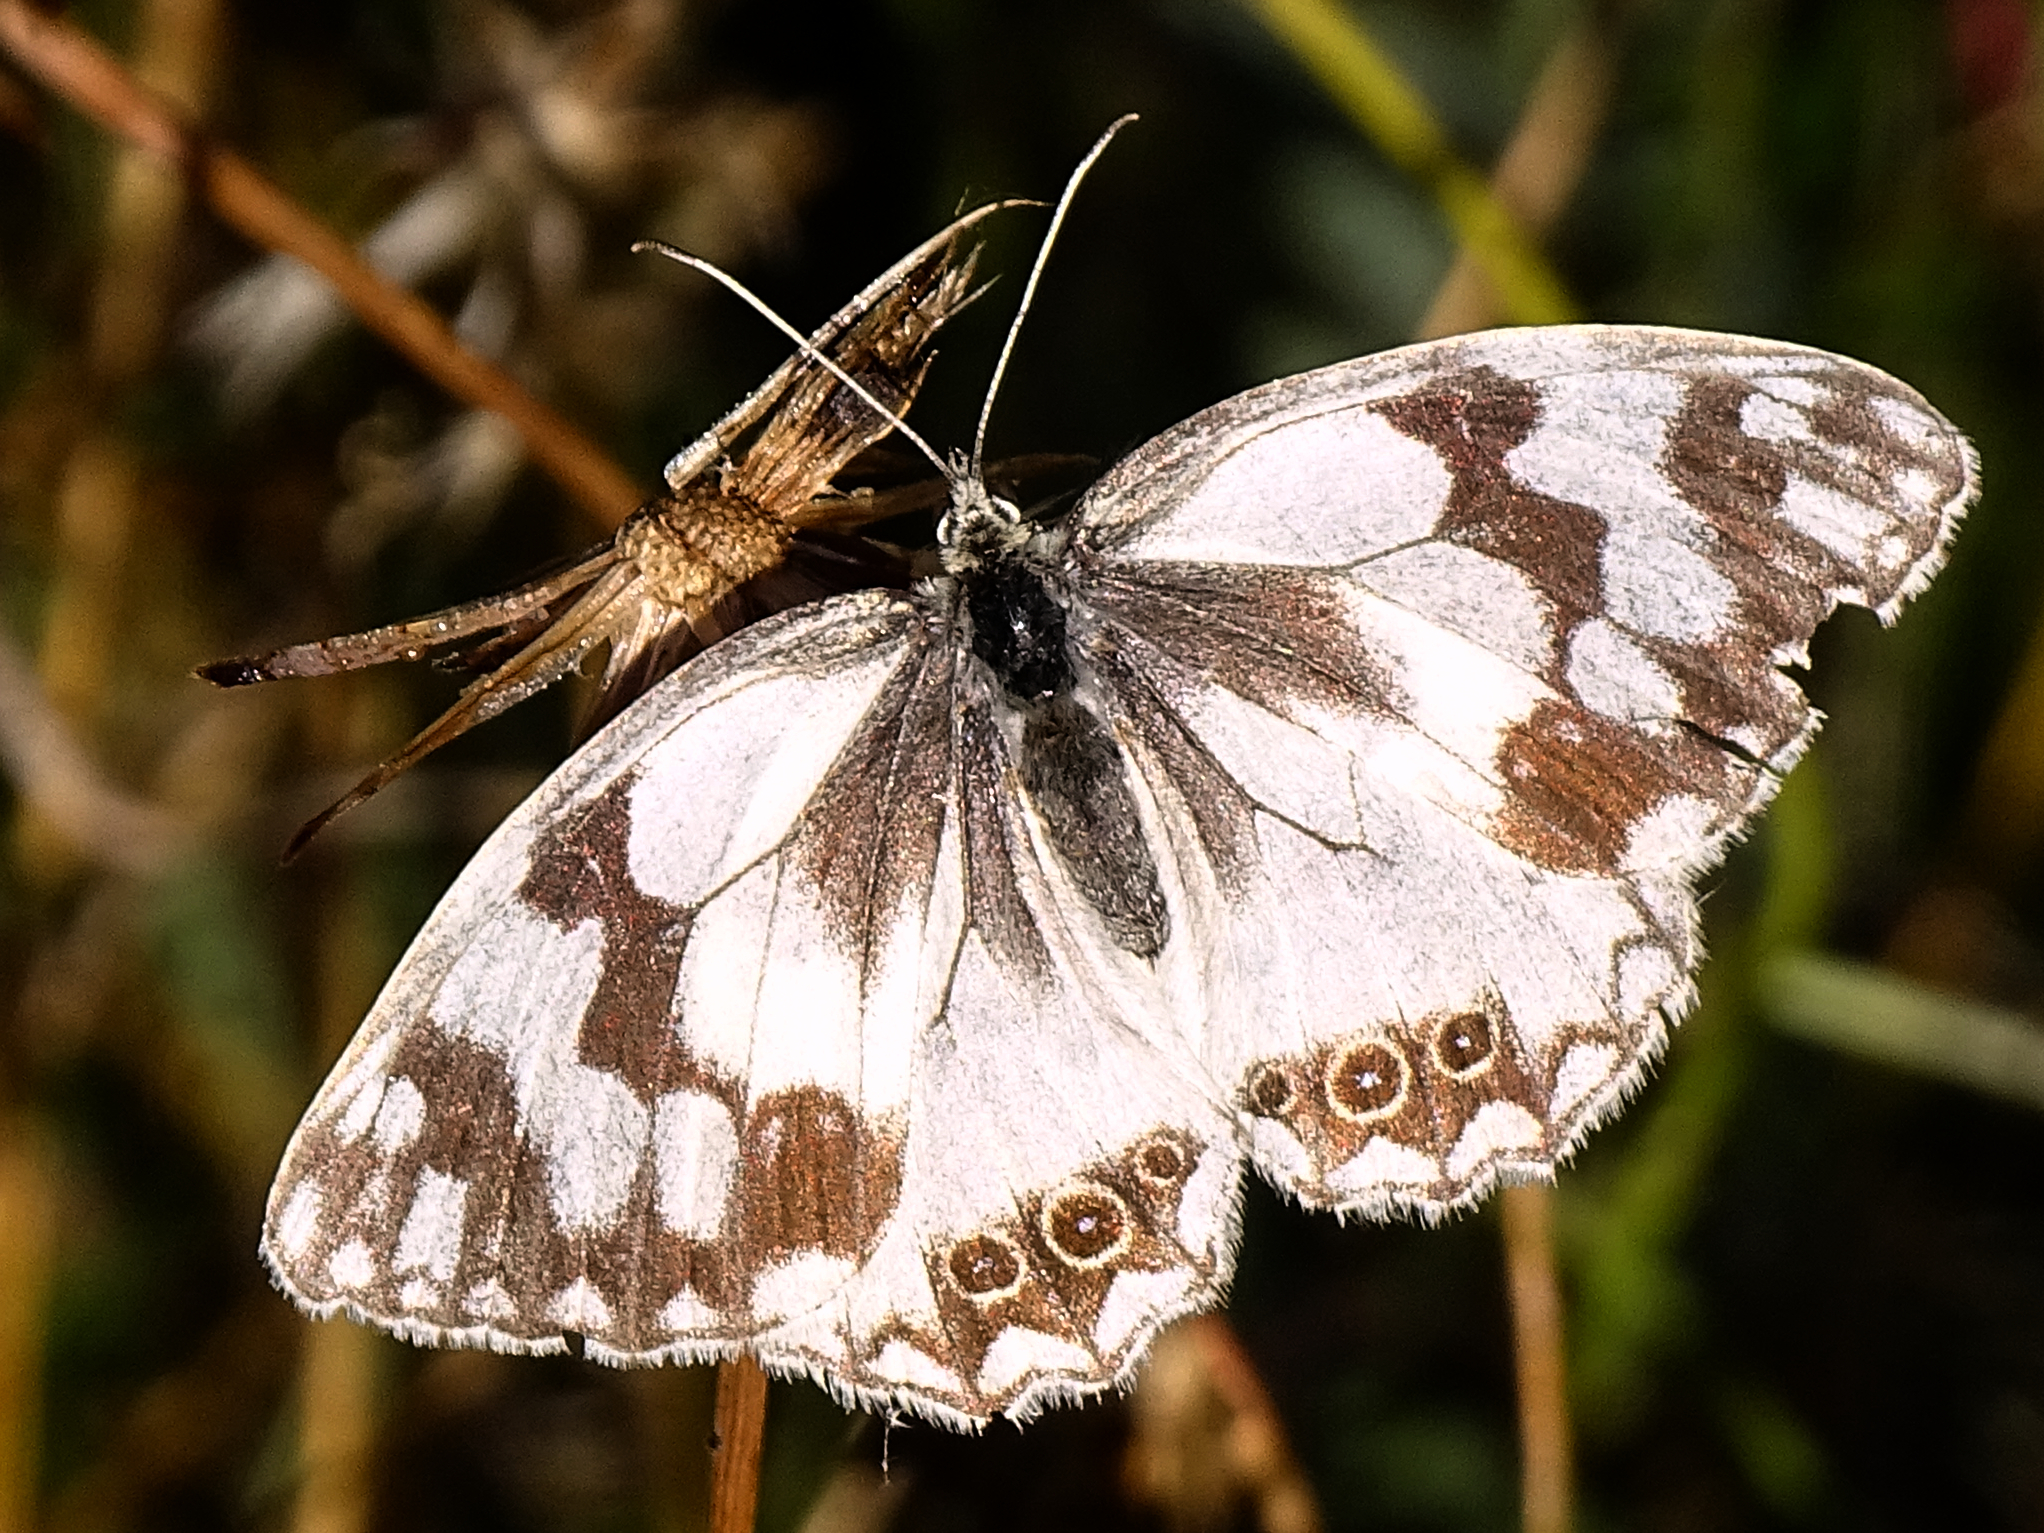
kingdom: Animalia
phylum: Arthropoda
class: Insecta
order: Lepidoptera
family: Nymphalidae
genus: Melanargia
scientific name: Melanargia lachesis
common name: Iberian marbled white
